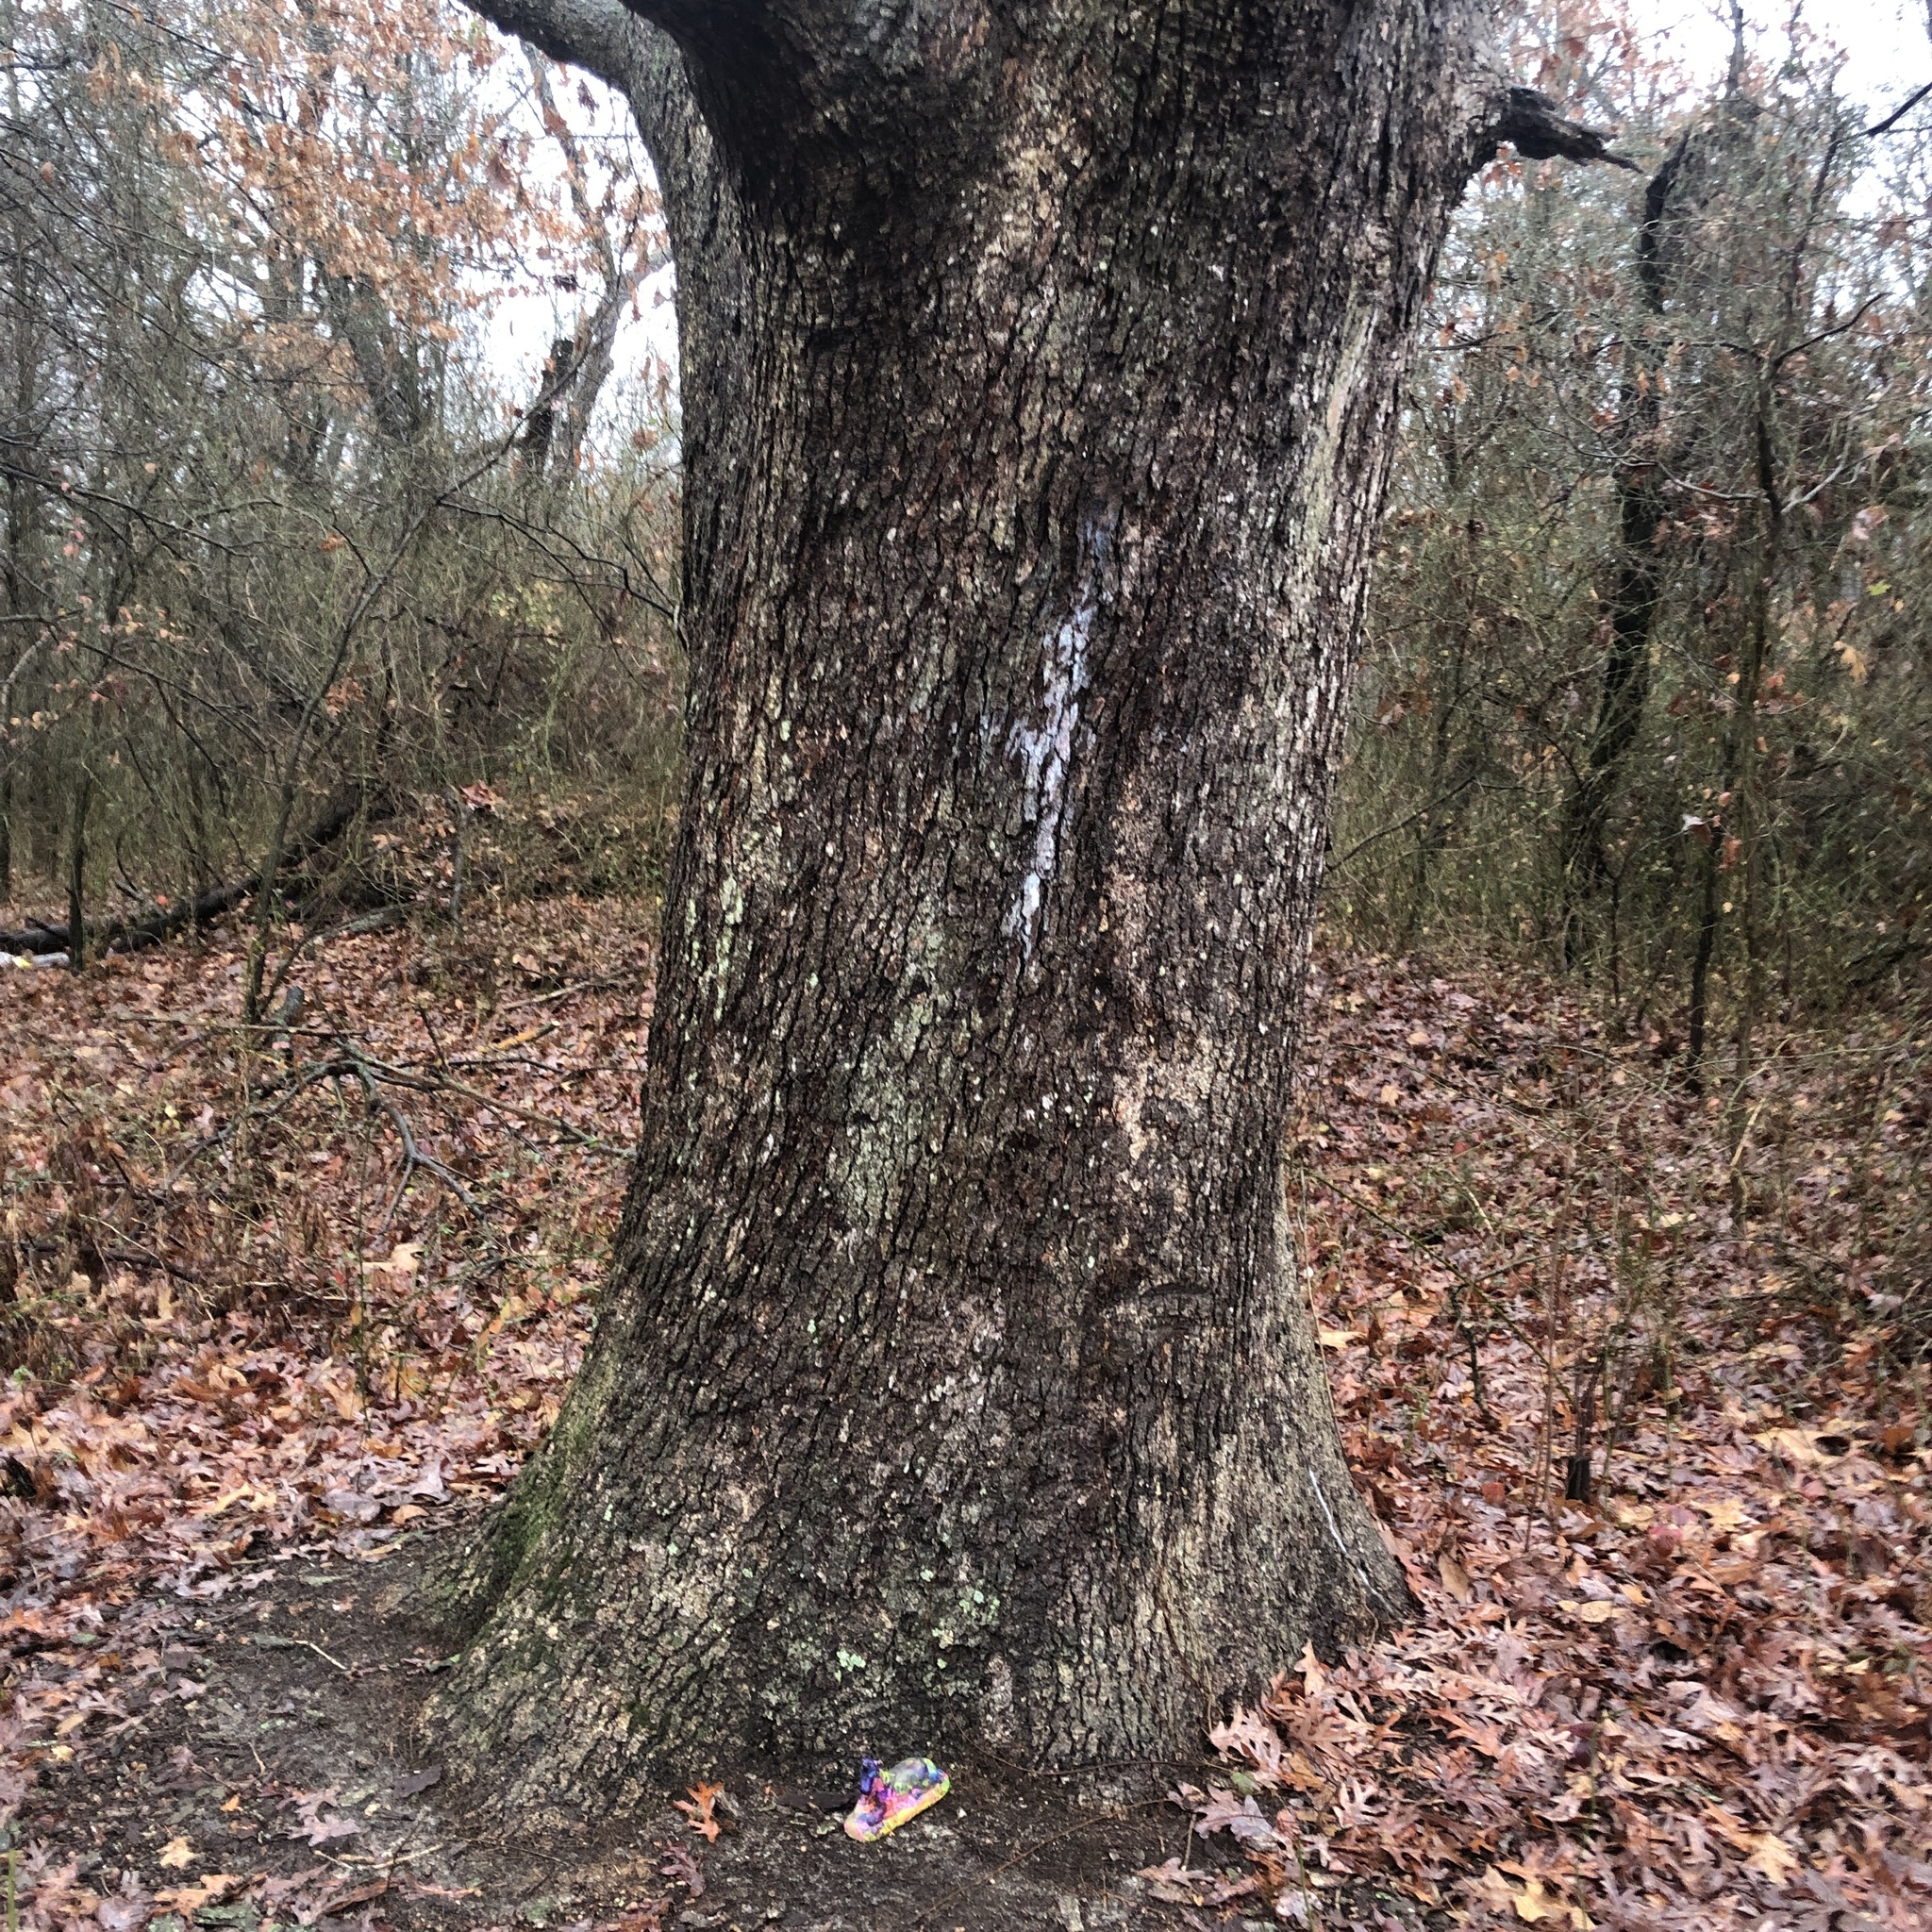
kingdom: Plantae
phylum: Tracheophyta
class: Magnoliopsida
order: Fagales
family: Fagaceae
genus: Quercus
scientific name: Quercus alba
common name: White oak
